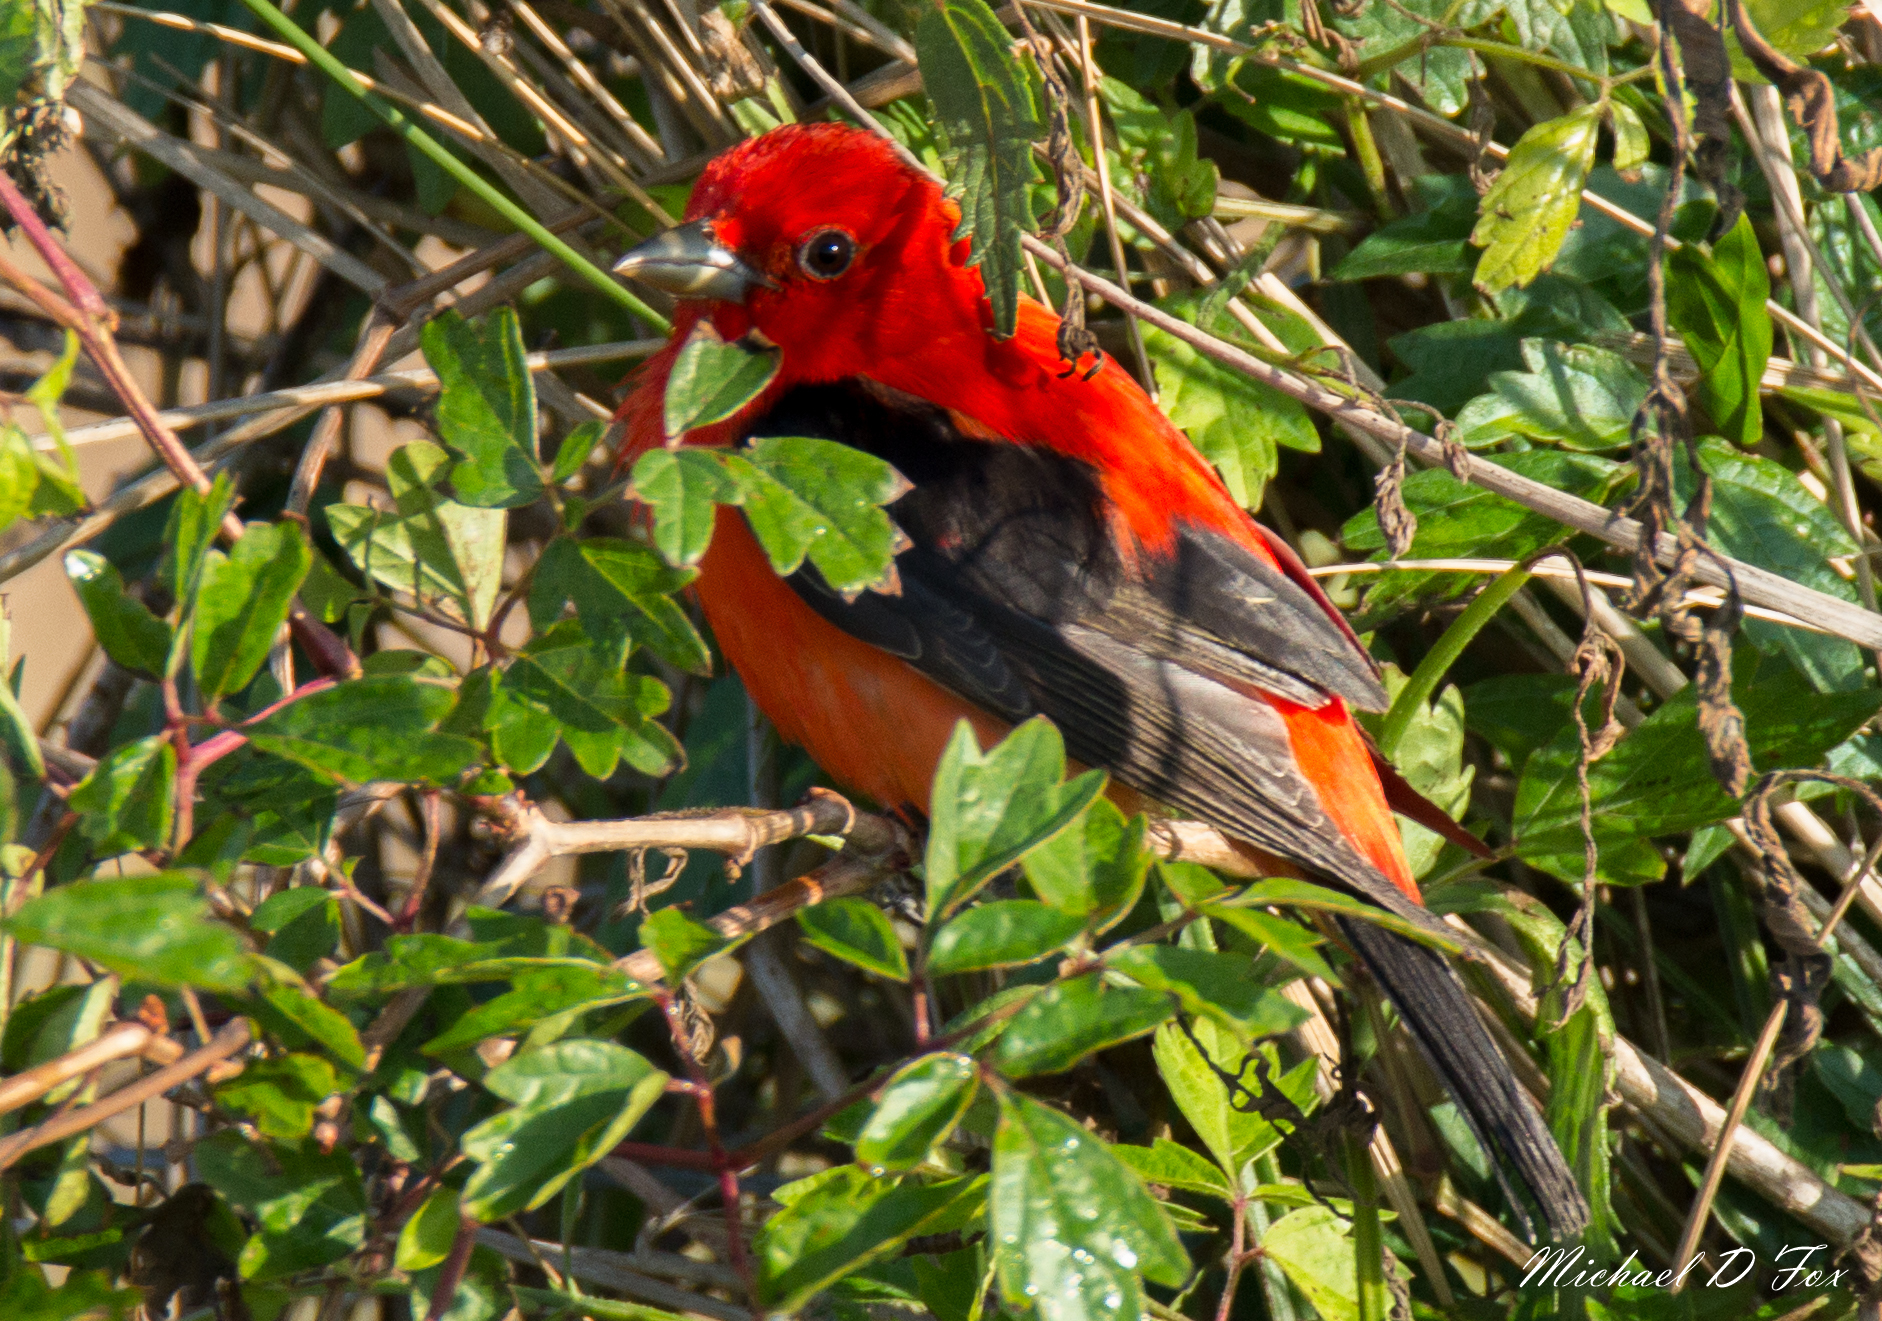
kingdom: Animalia
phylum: Chordata
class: Aves
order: Passeriformes
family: Cardinalidae
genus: Piranga
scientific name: Piranga olivacea
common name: Scarlet tanager
